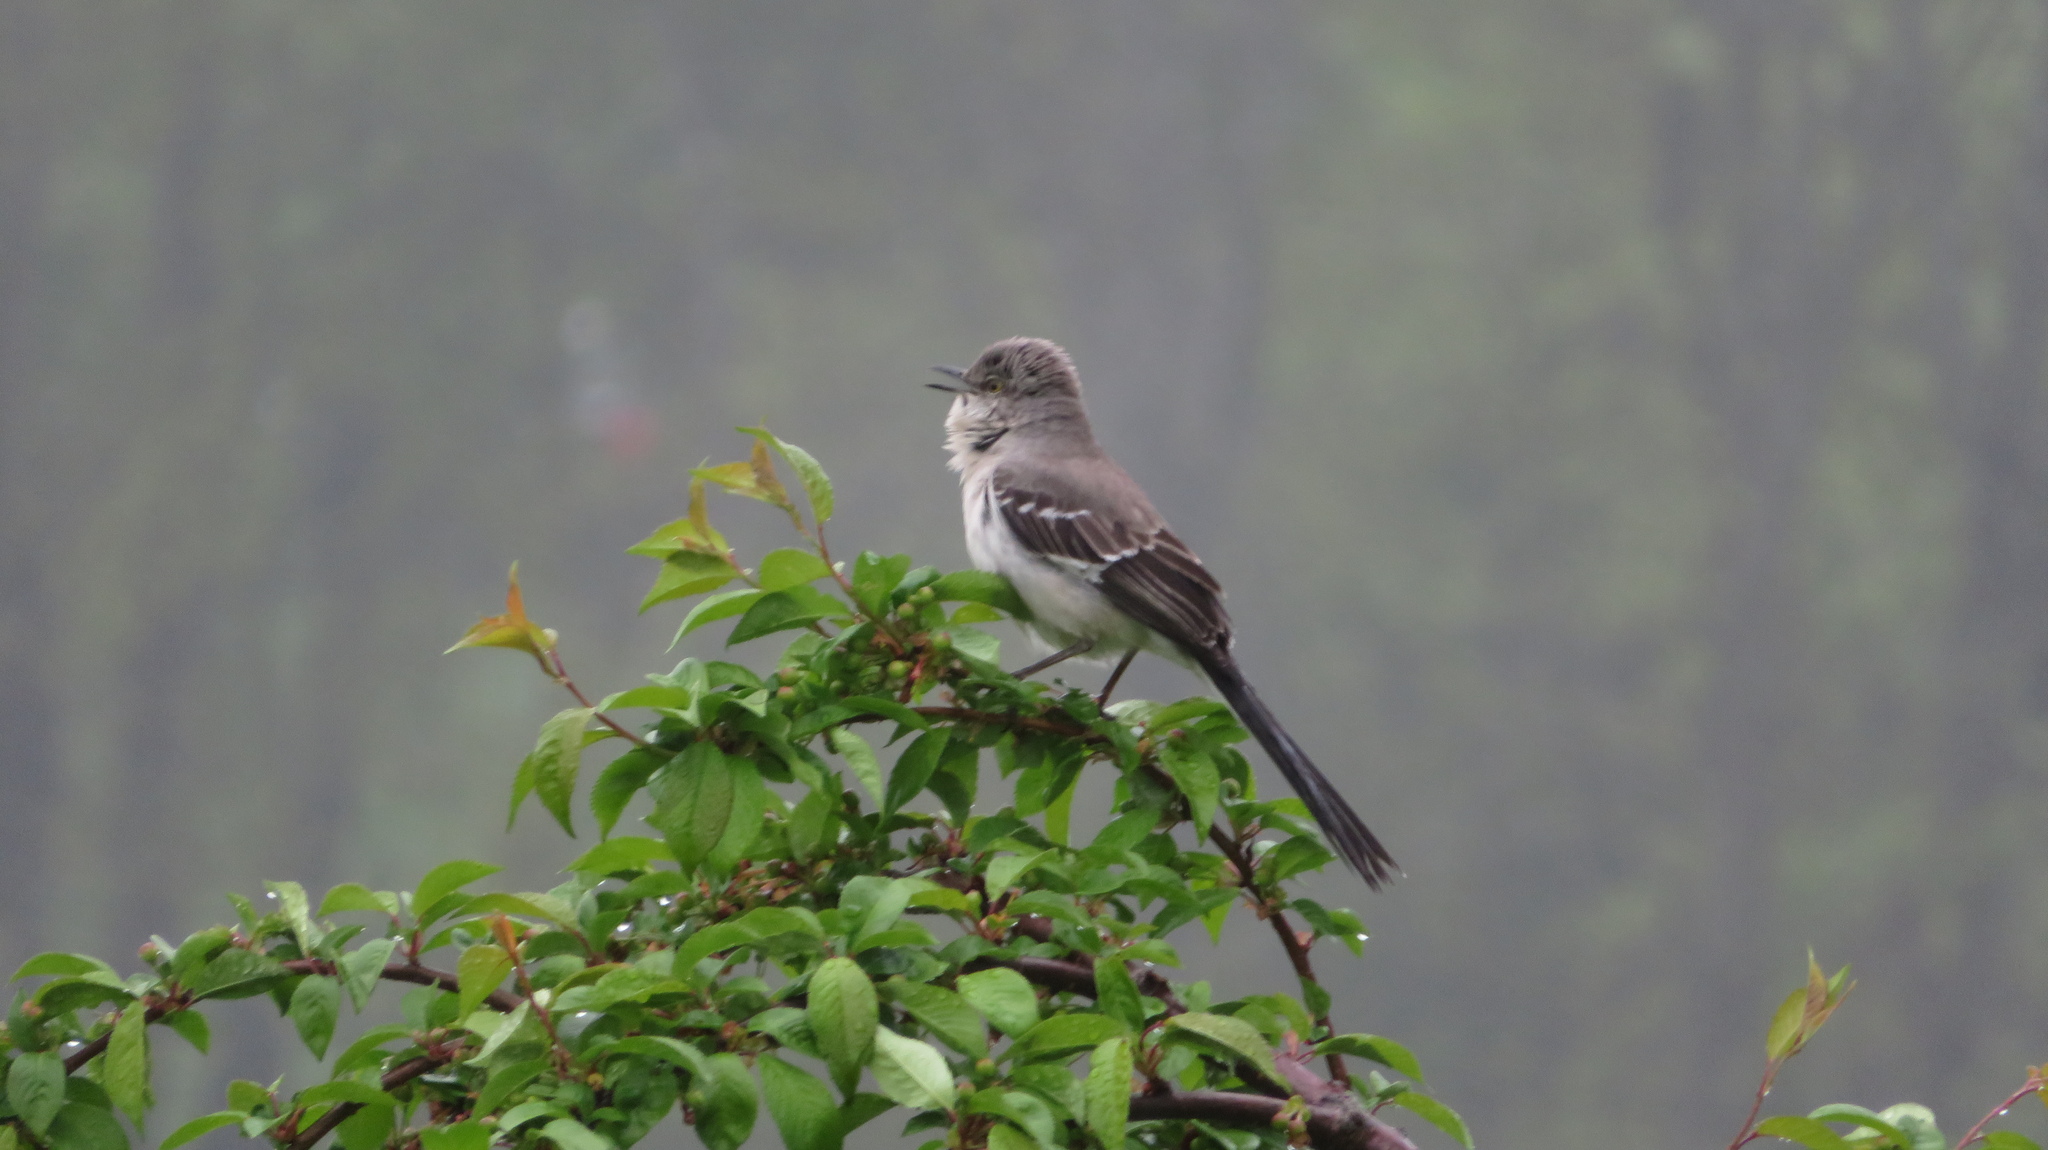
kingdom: Animalia
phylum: Chordata
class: Aves
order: Passeriformes
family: Mimidae
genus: Mimus
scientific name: Mimus polyglottos
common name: Northern mockingbird
